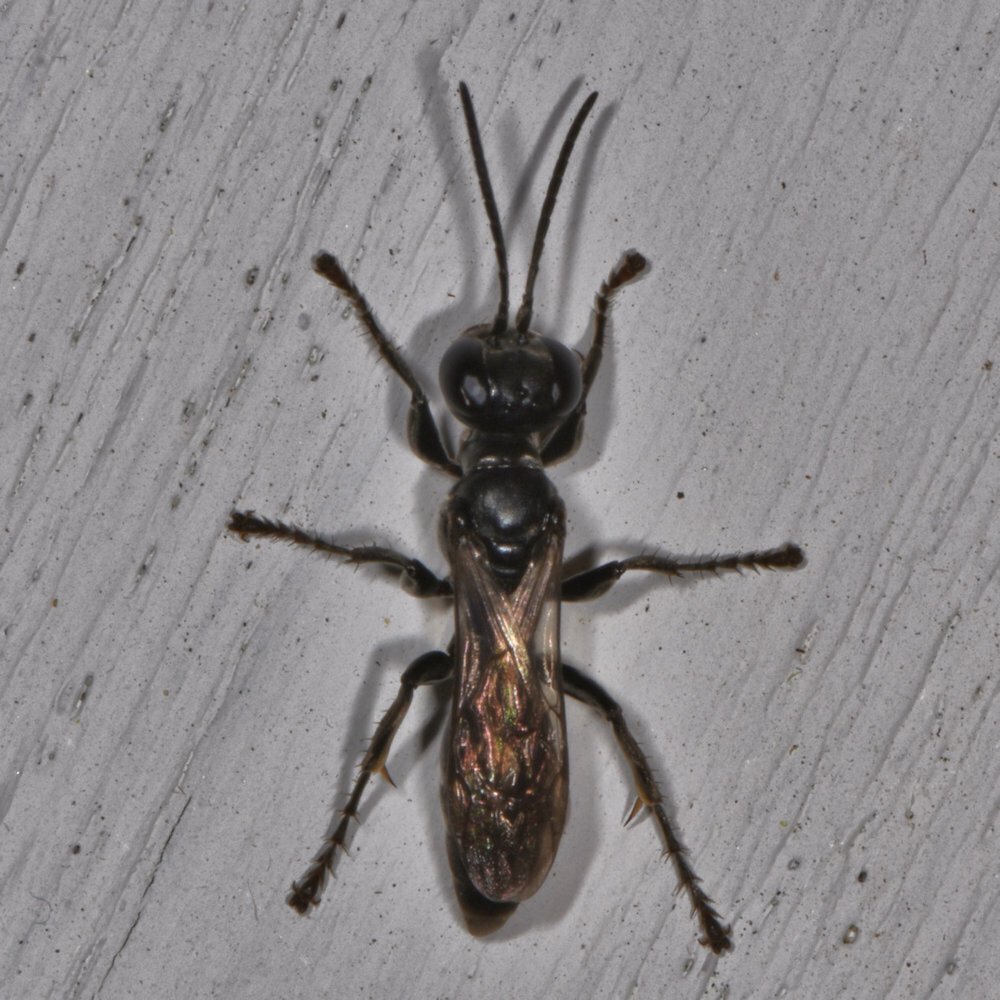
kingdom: Animalia
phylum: Arthropoda
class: Insecta
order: Hymenoptera
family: Crabronidae
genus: Lyroda
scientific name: Lyroda subita
